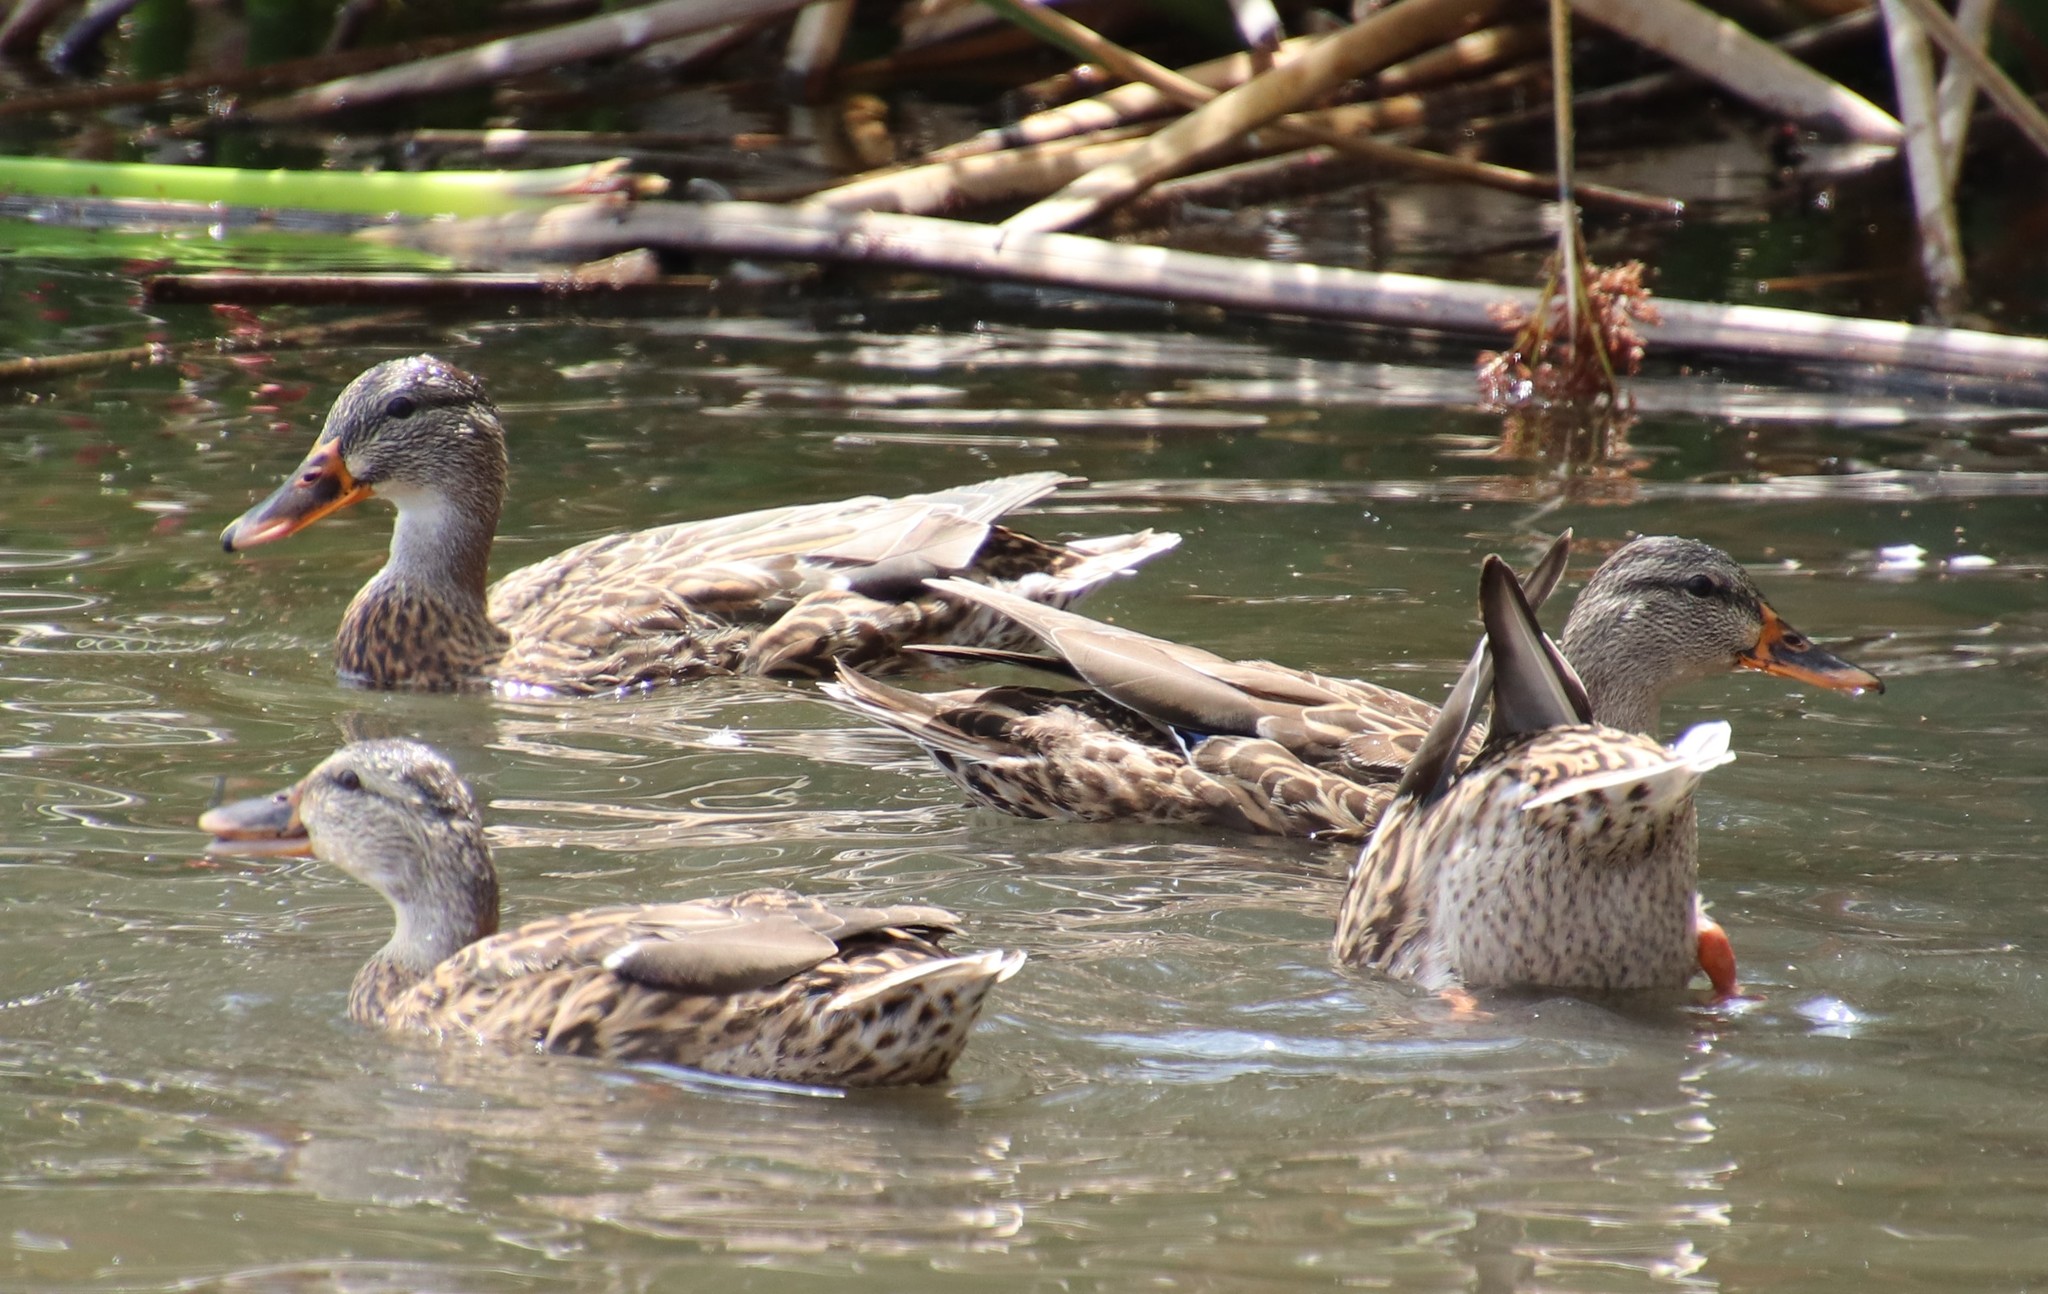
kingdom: Animalia
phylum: Chordata
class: Aves
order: Anseriformes
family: Anatidae
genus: Anas
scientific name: Anas platyrhynchos
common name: Mallard
